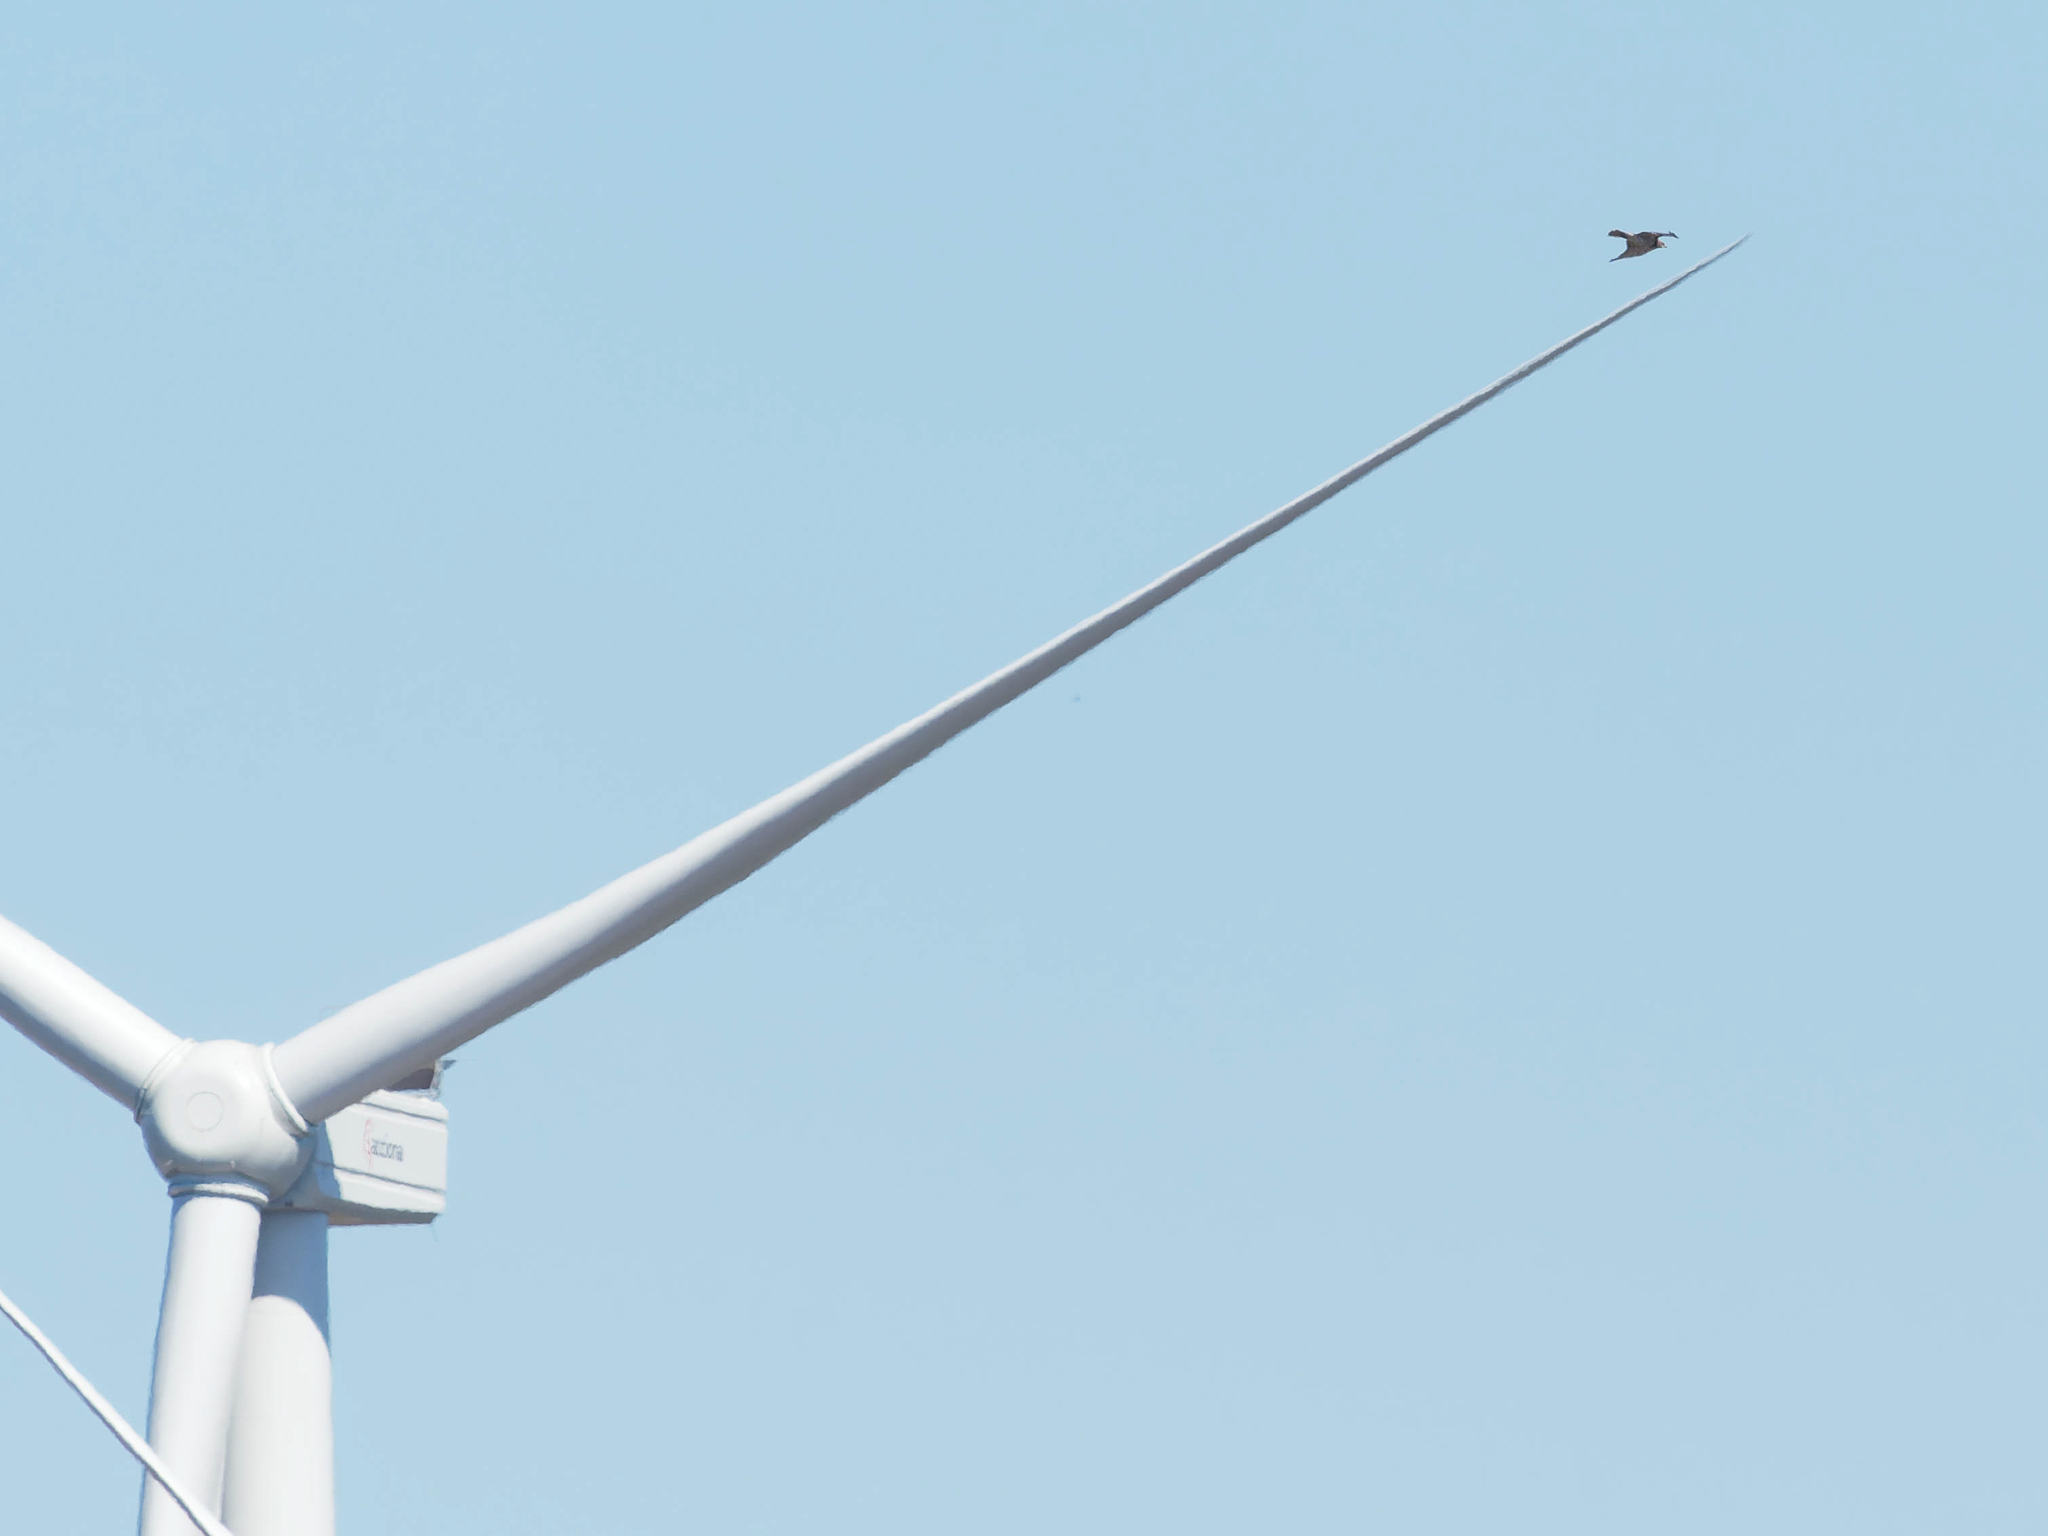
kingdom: Animalia
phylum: Chordata
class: Aves
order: Accipitriformes
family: Accipitridae
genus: Hieraaetus
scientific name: Hieraaetus pennatus
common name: Booted eagle
